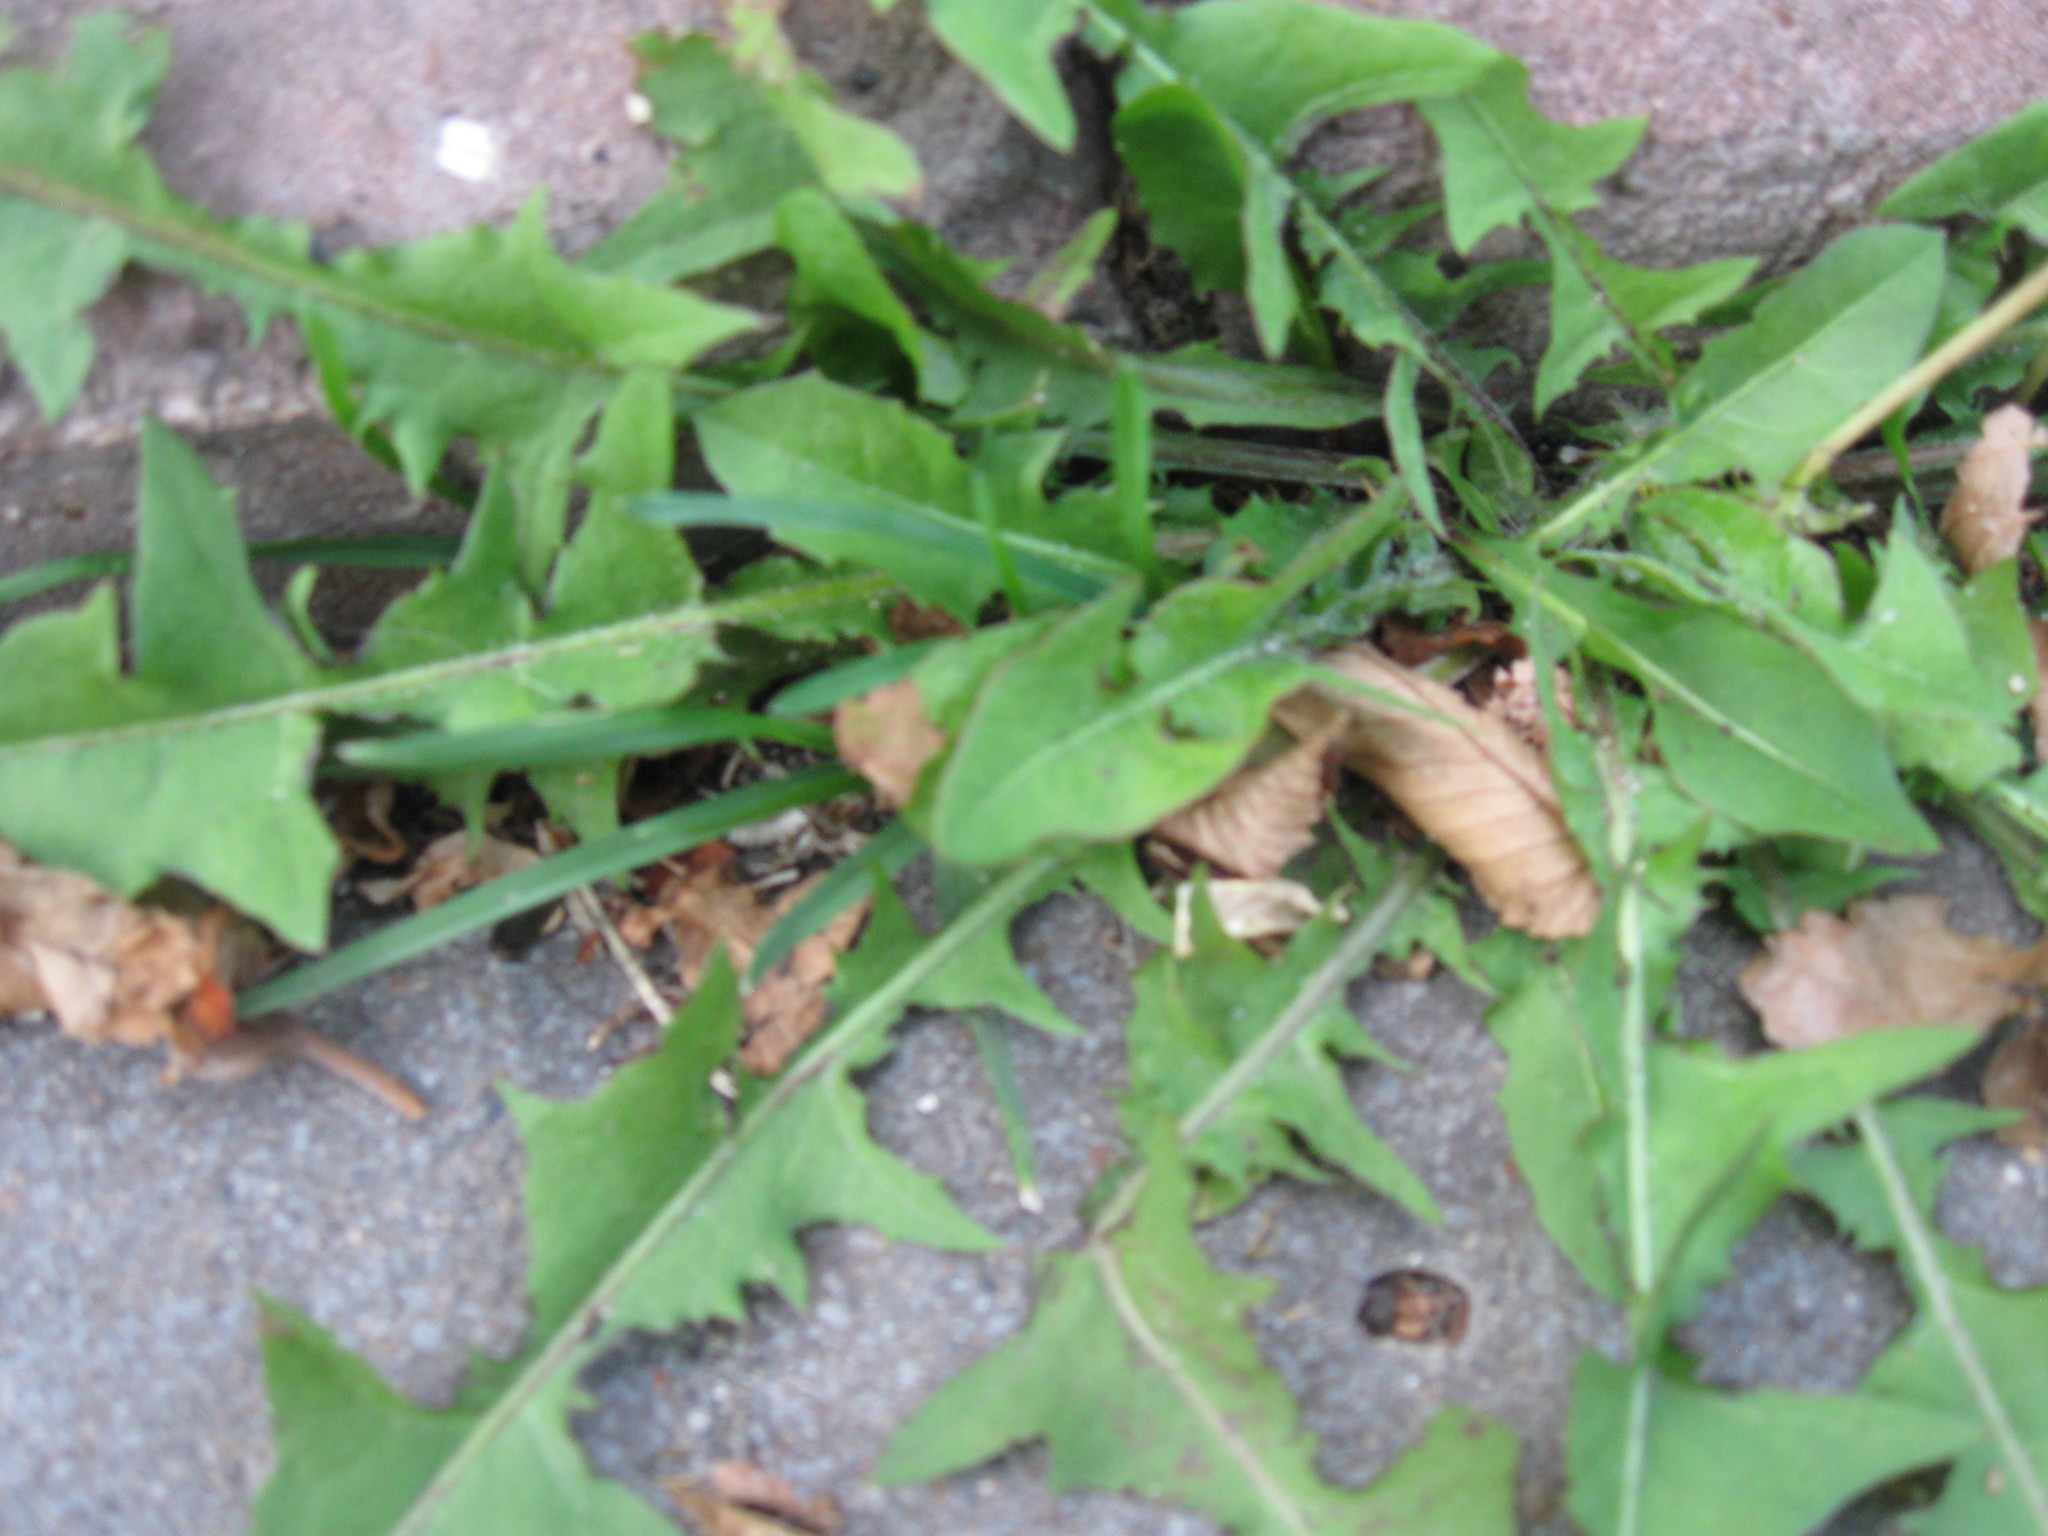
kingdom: Plantae
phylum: Tracheophyta
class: Magnoliopsida
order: Asterales
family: Asteraceae
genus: Taraxacum
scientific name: Taraxacum officinale
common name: Common dandelion
